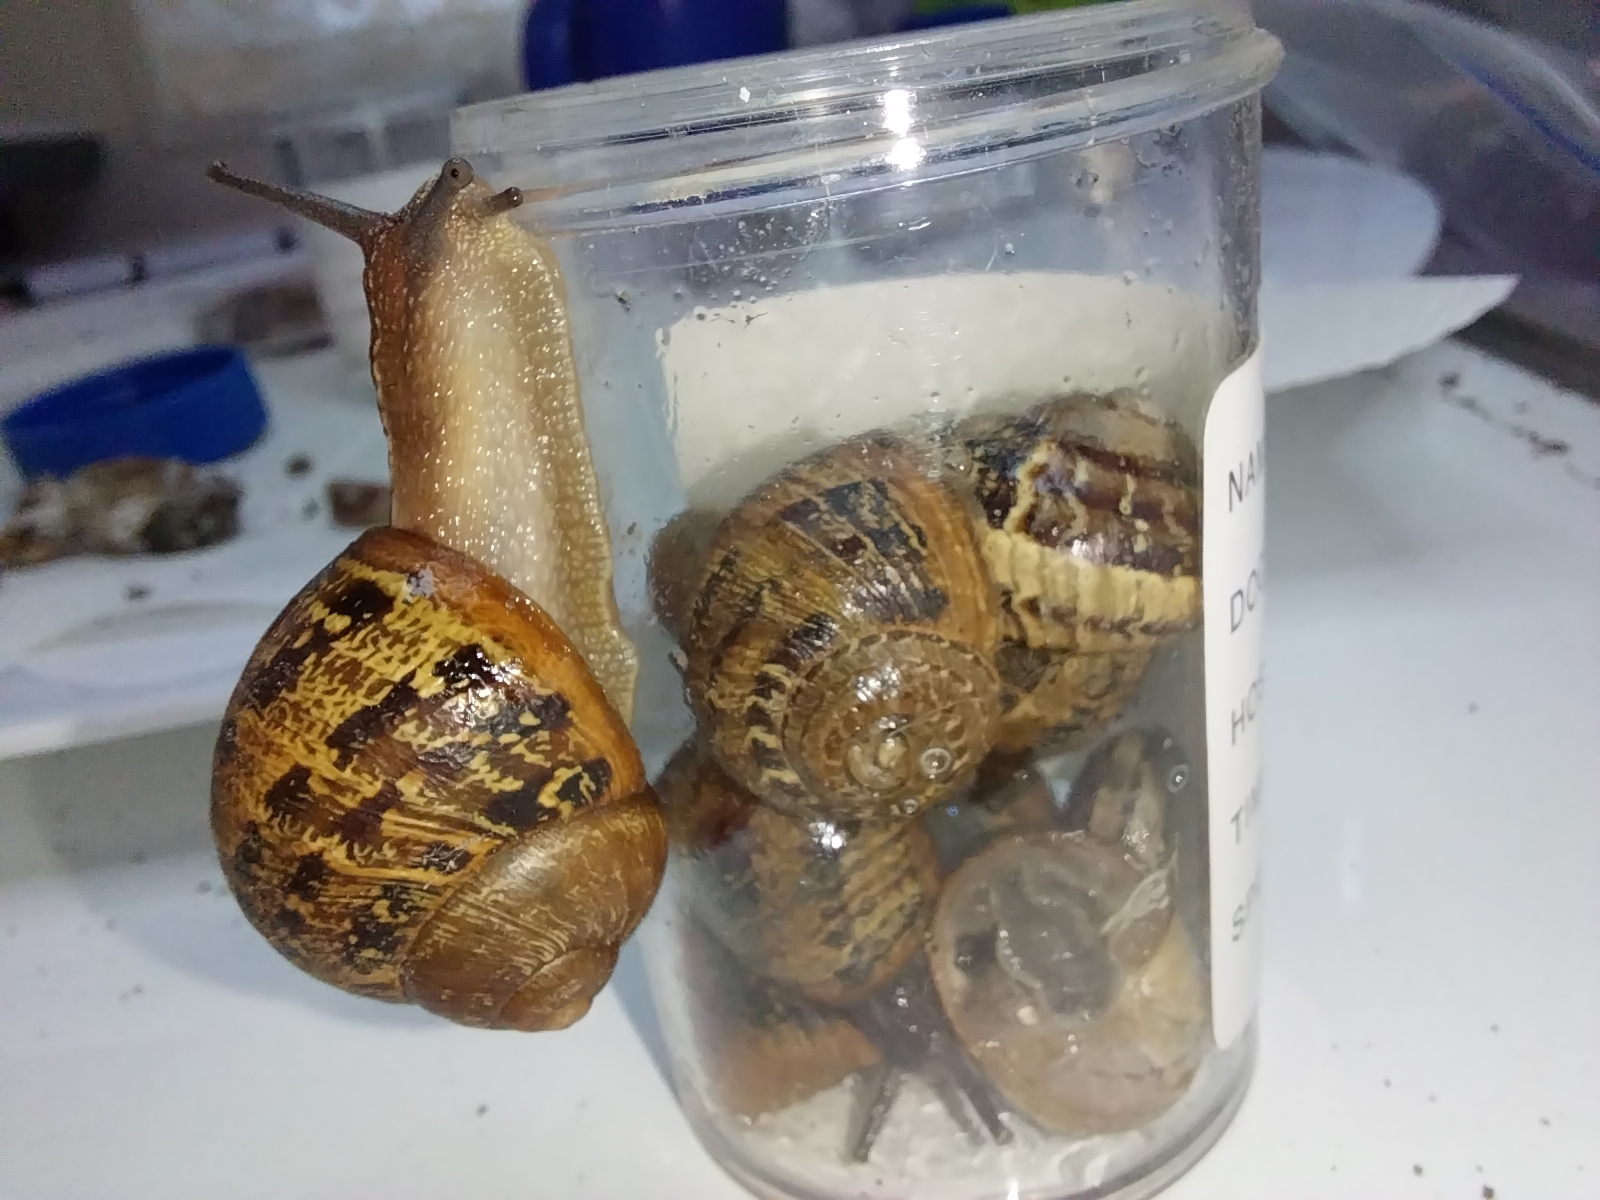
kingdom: Animalia
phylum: Mollusca
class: Gastropoda
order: Stylommatophora
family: Helicidae
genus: Cornu
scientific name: Cornu aspersum
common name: Brown garden snail
